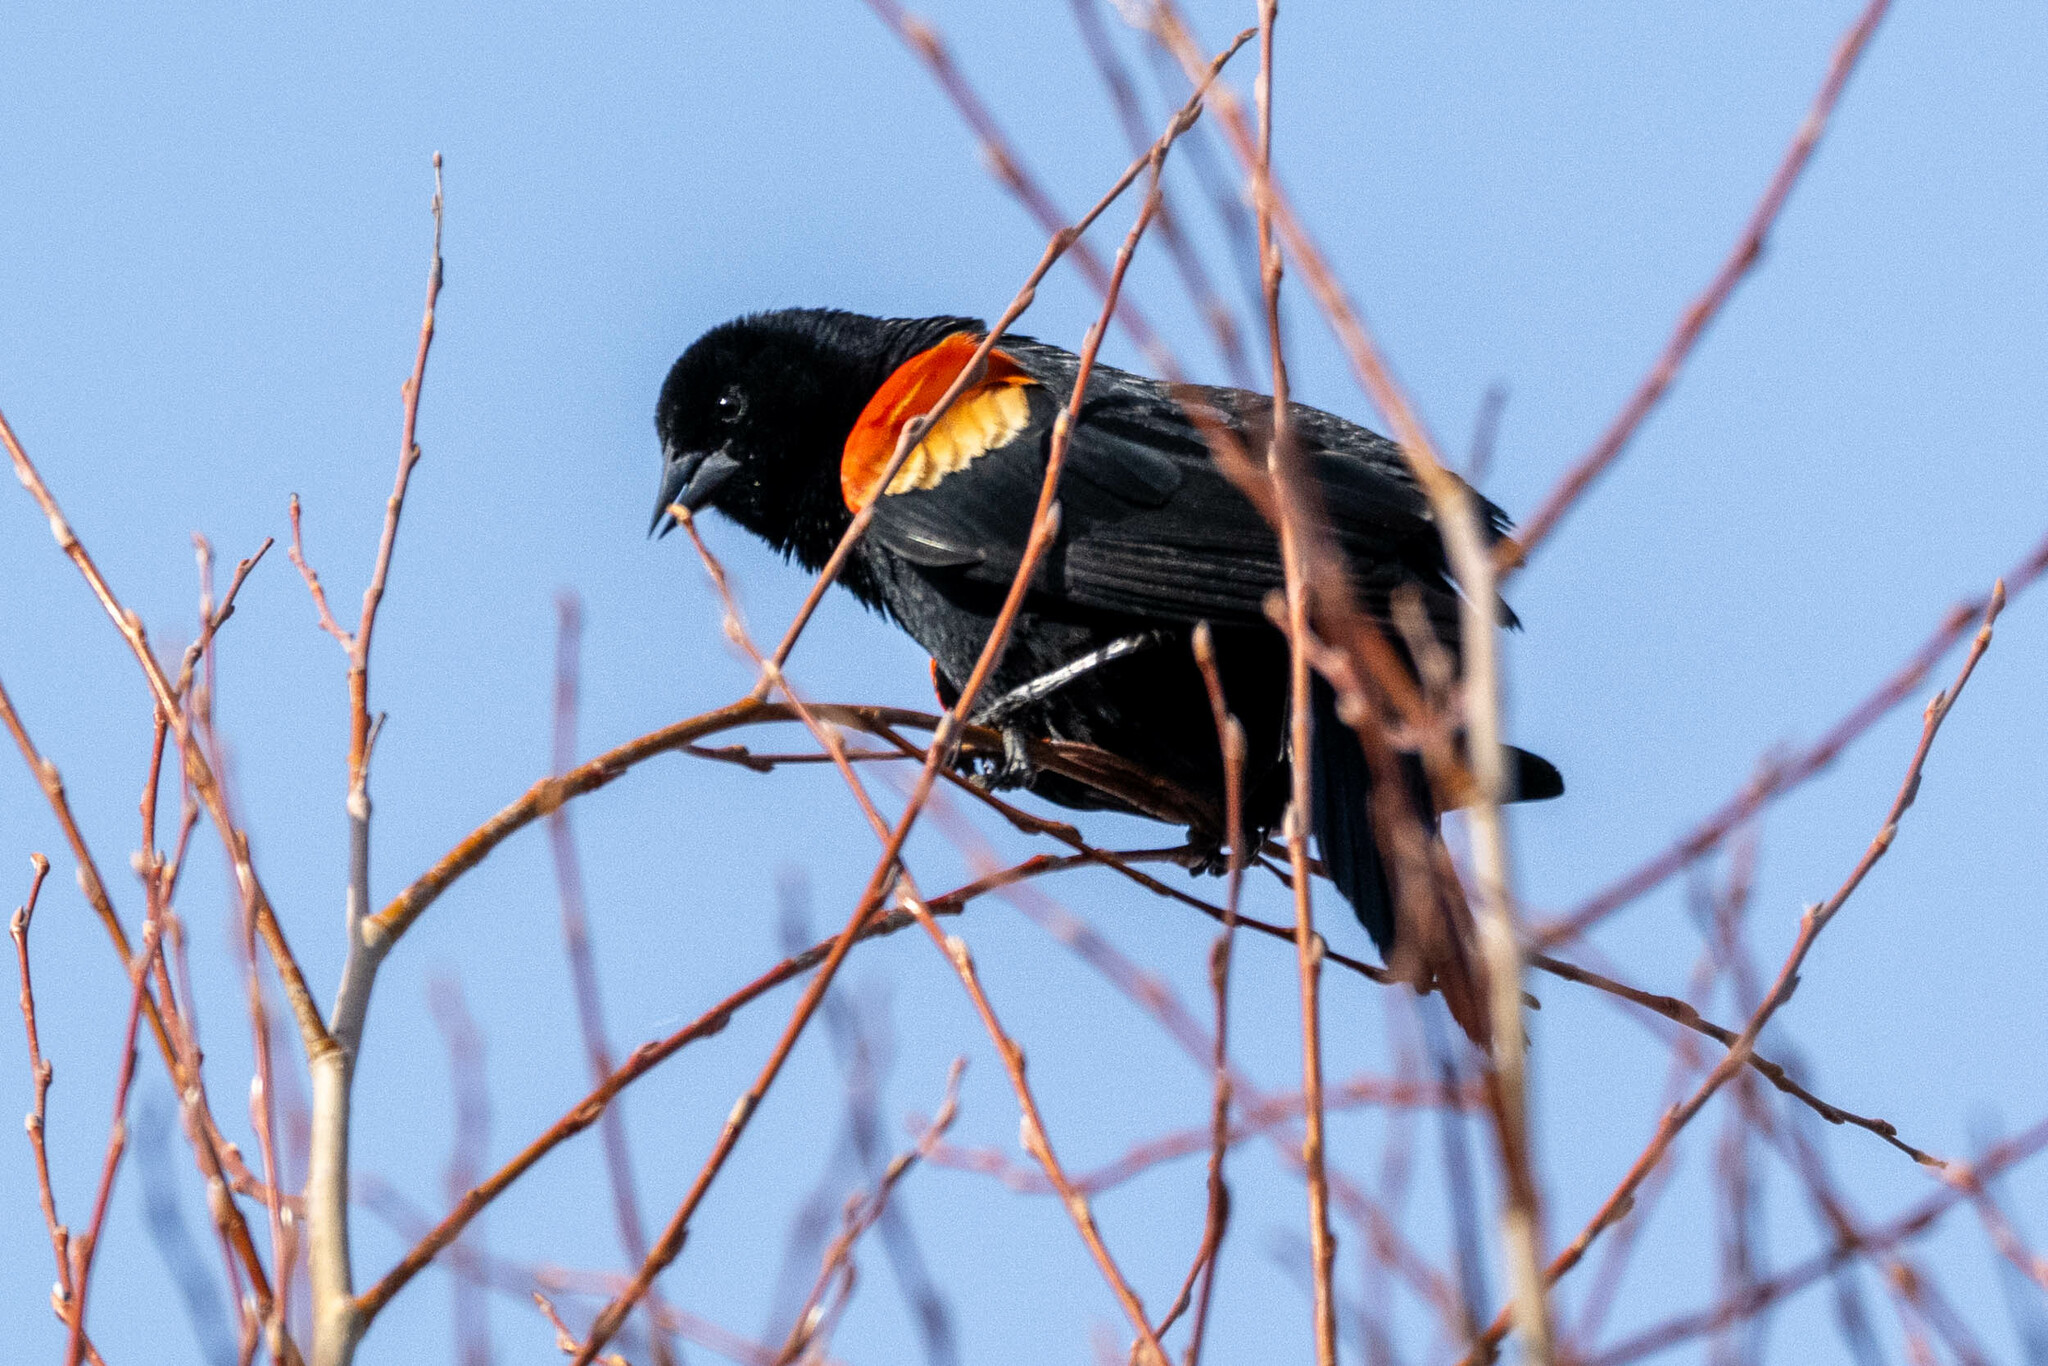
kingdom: Animalia
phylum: Chordata
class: Aves
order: Passeriformes
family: Icteridae
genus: Agelaius
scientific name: Agelaius phoeniceus
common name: Red-winged blackbird
